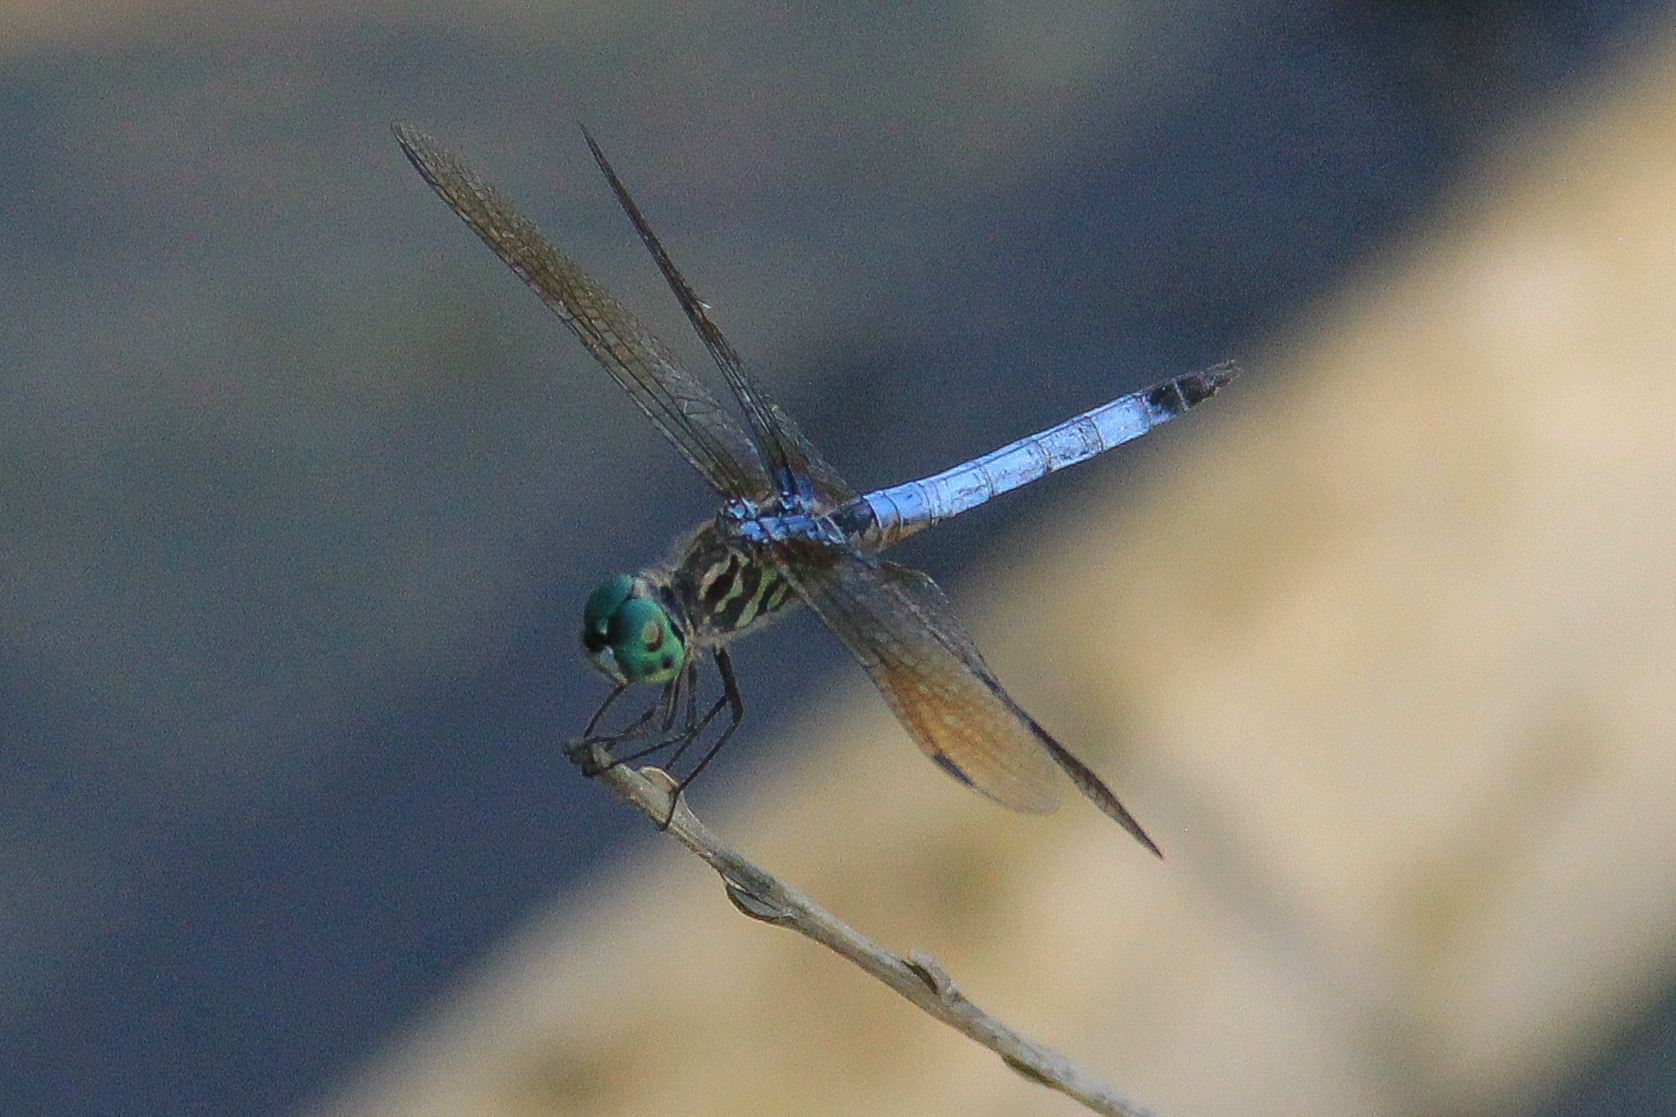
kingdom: Animalia
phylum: Arthropoda
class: Insecta
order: Odonata
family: Libellulidae
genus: Pachydiplax
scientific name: Pachydiplax longipennis
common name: Blue dasher
